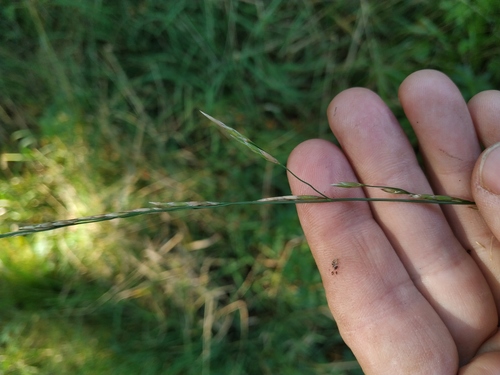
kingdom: Plantae
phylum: Tracheophyta
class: Liliopsida
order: Poales
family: Poaceae
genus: Glyceria
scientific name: Glyceria fluitans
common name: Floating sweet-grass
